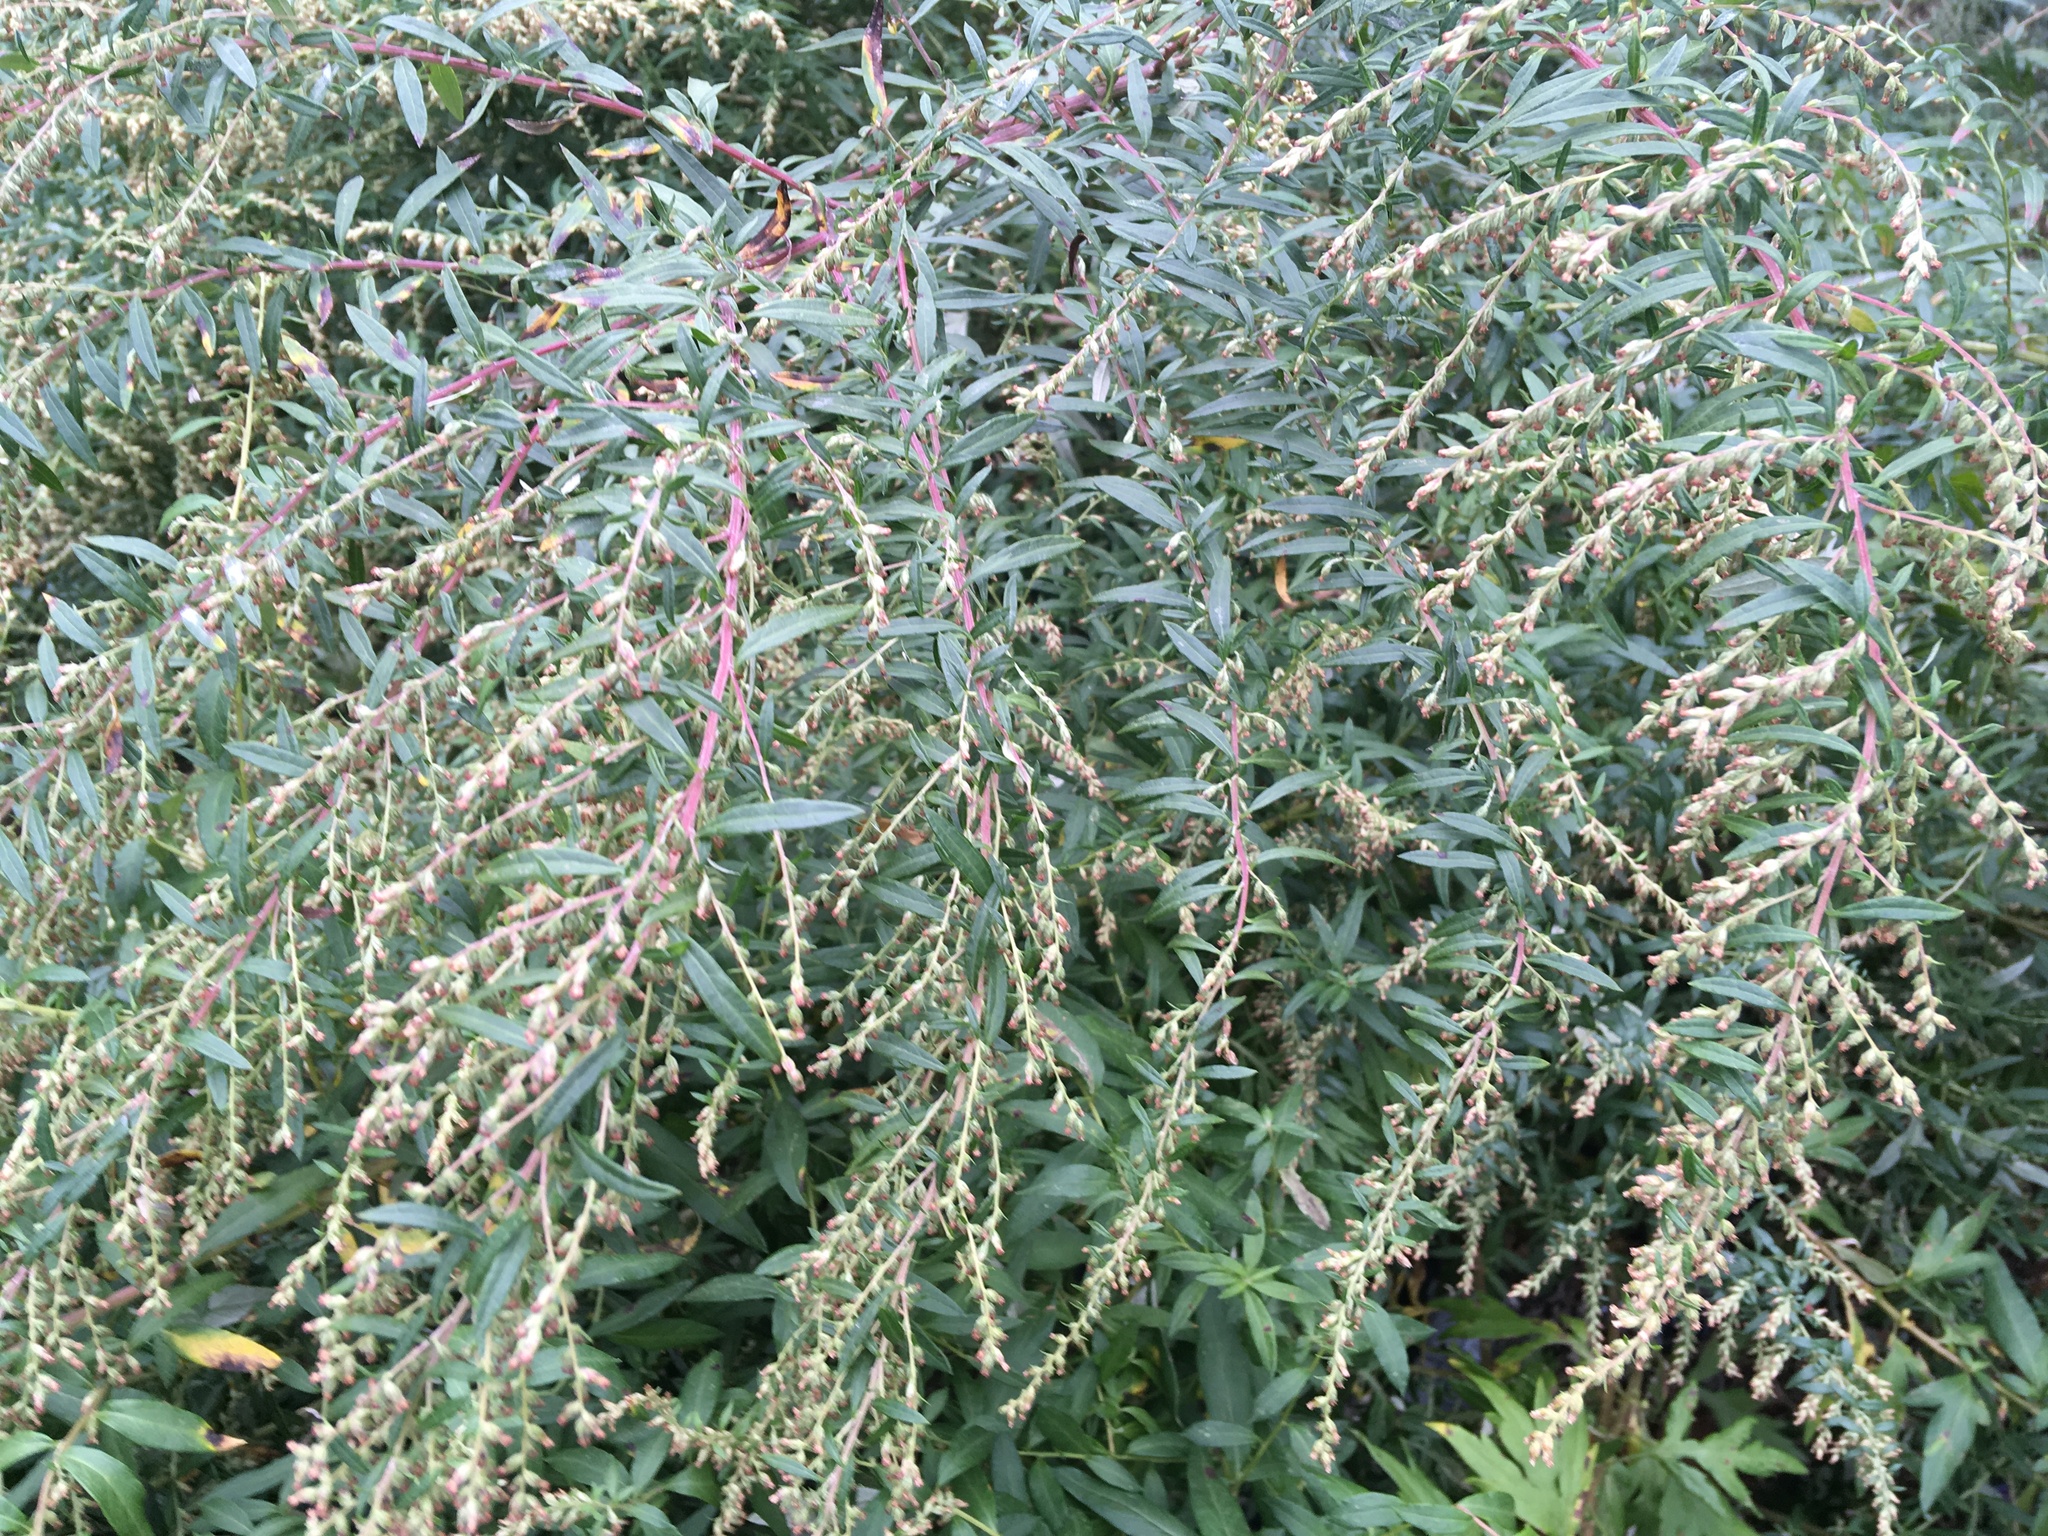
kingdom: Plantae
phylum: Tracheophyta
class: Magnoliopsida
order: Asterales
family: Asteraceae
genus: Artemisia
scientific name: Artemisia vulgaris
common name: Mugwort
